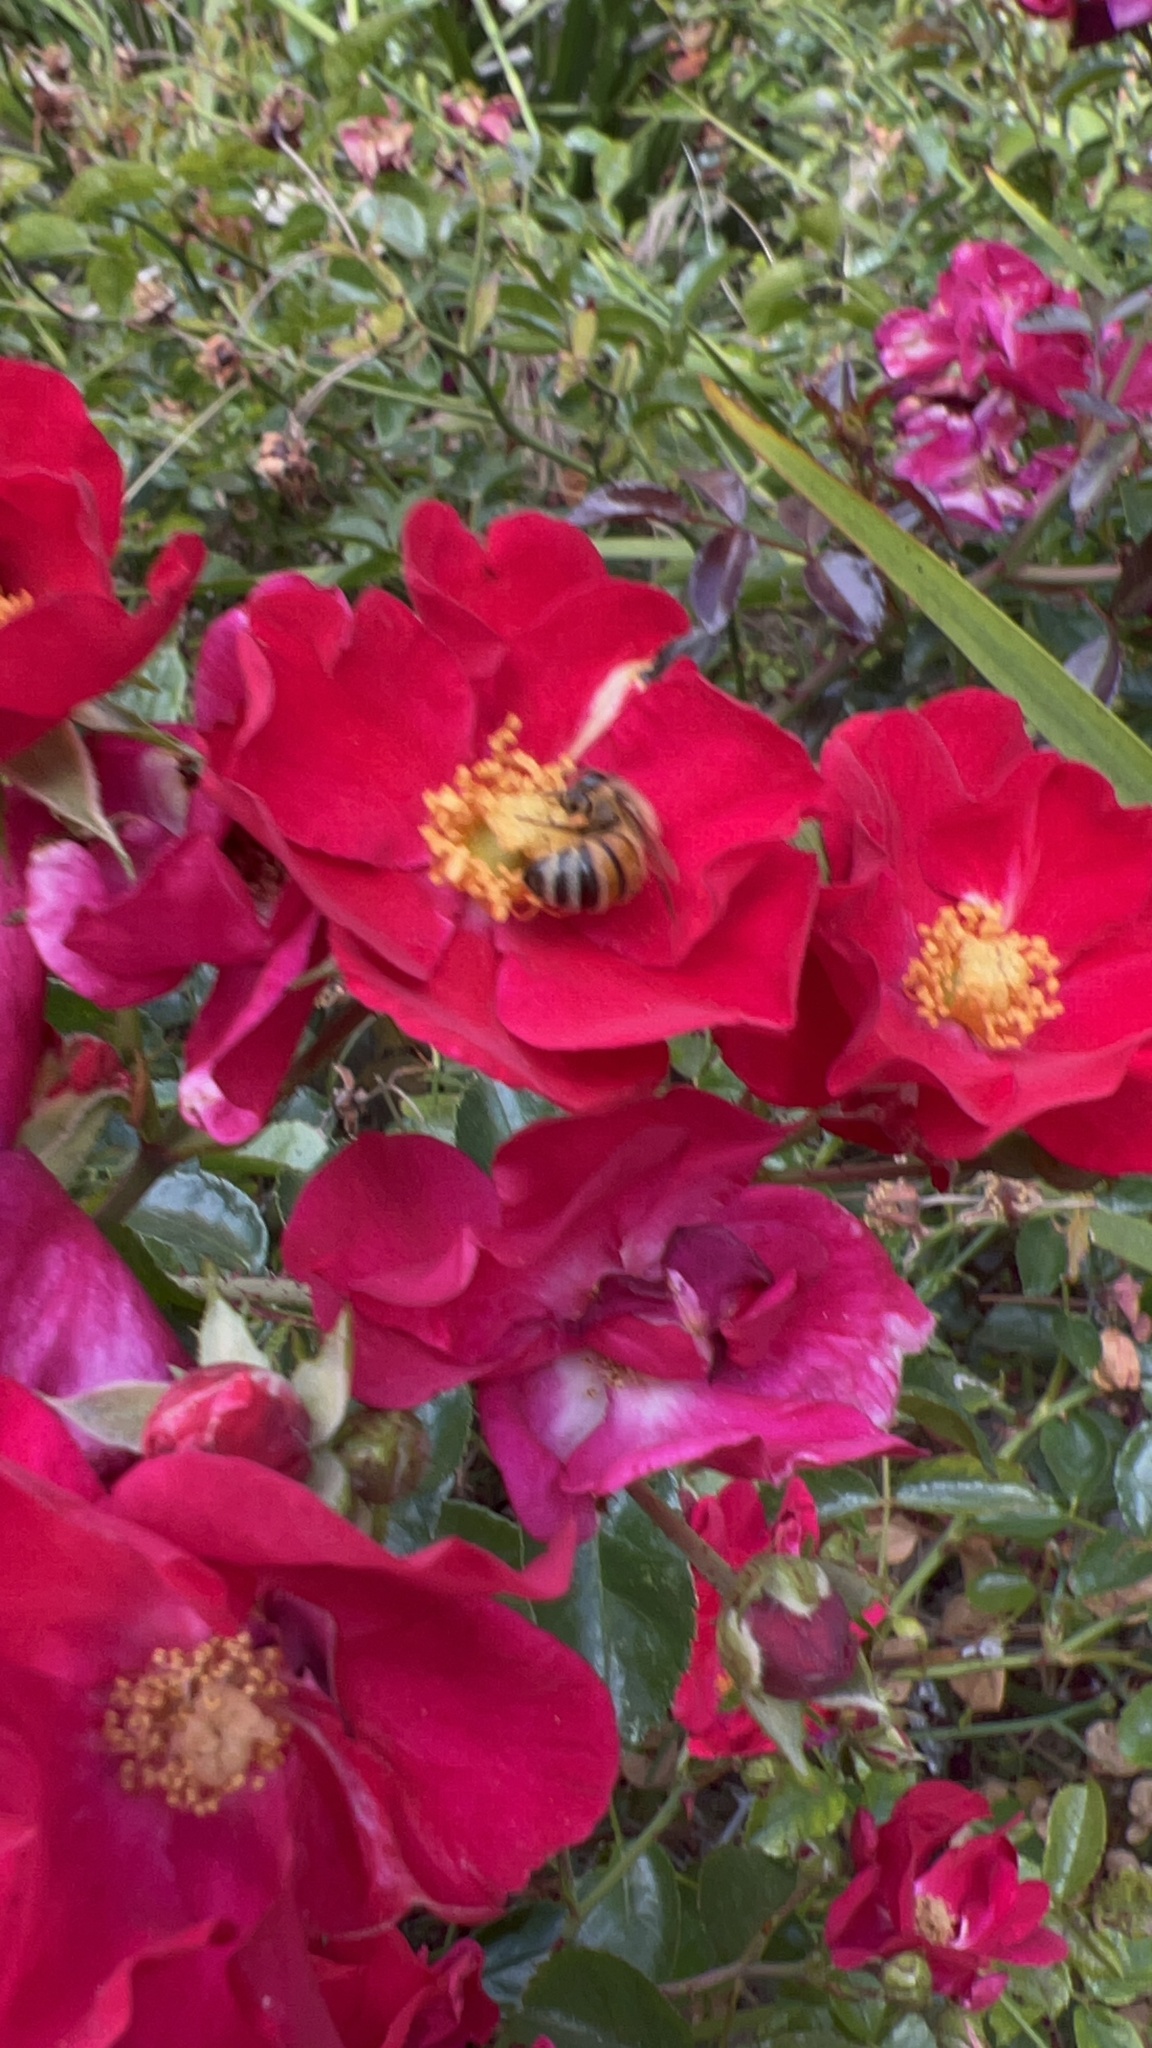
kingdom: Animalia
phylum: Arthropoda
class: Insecta
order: Hymenoptera
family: Apidae
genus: Apis
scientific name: Apis mellifera
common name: Honey bee
